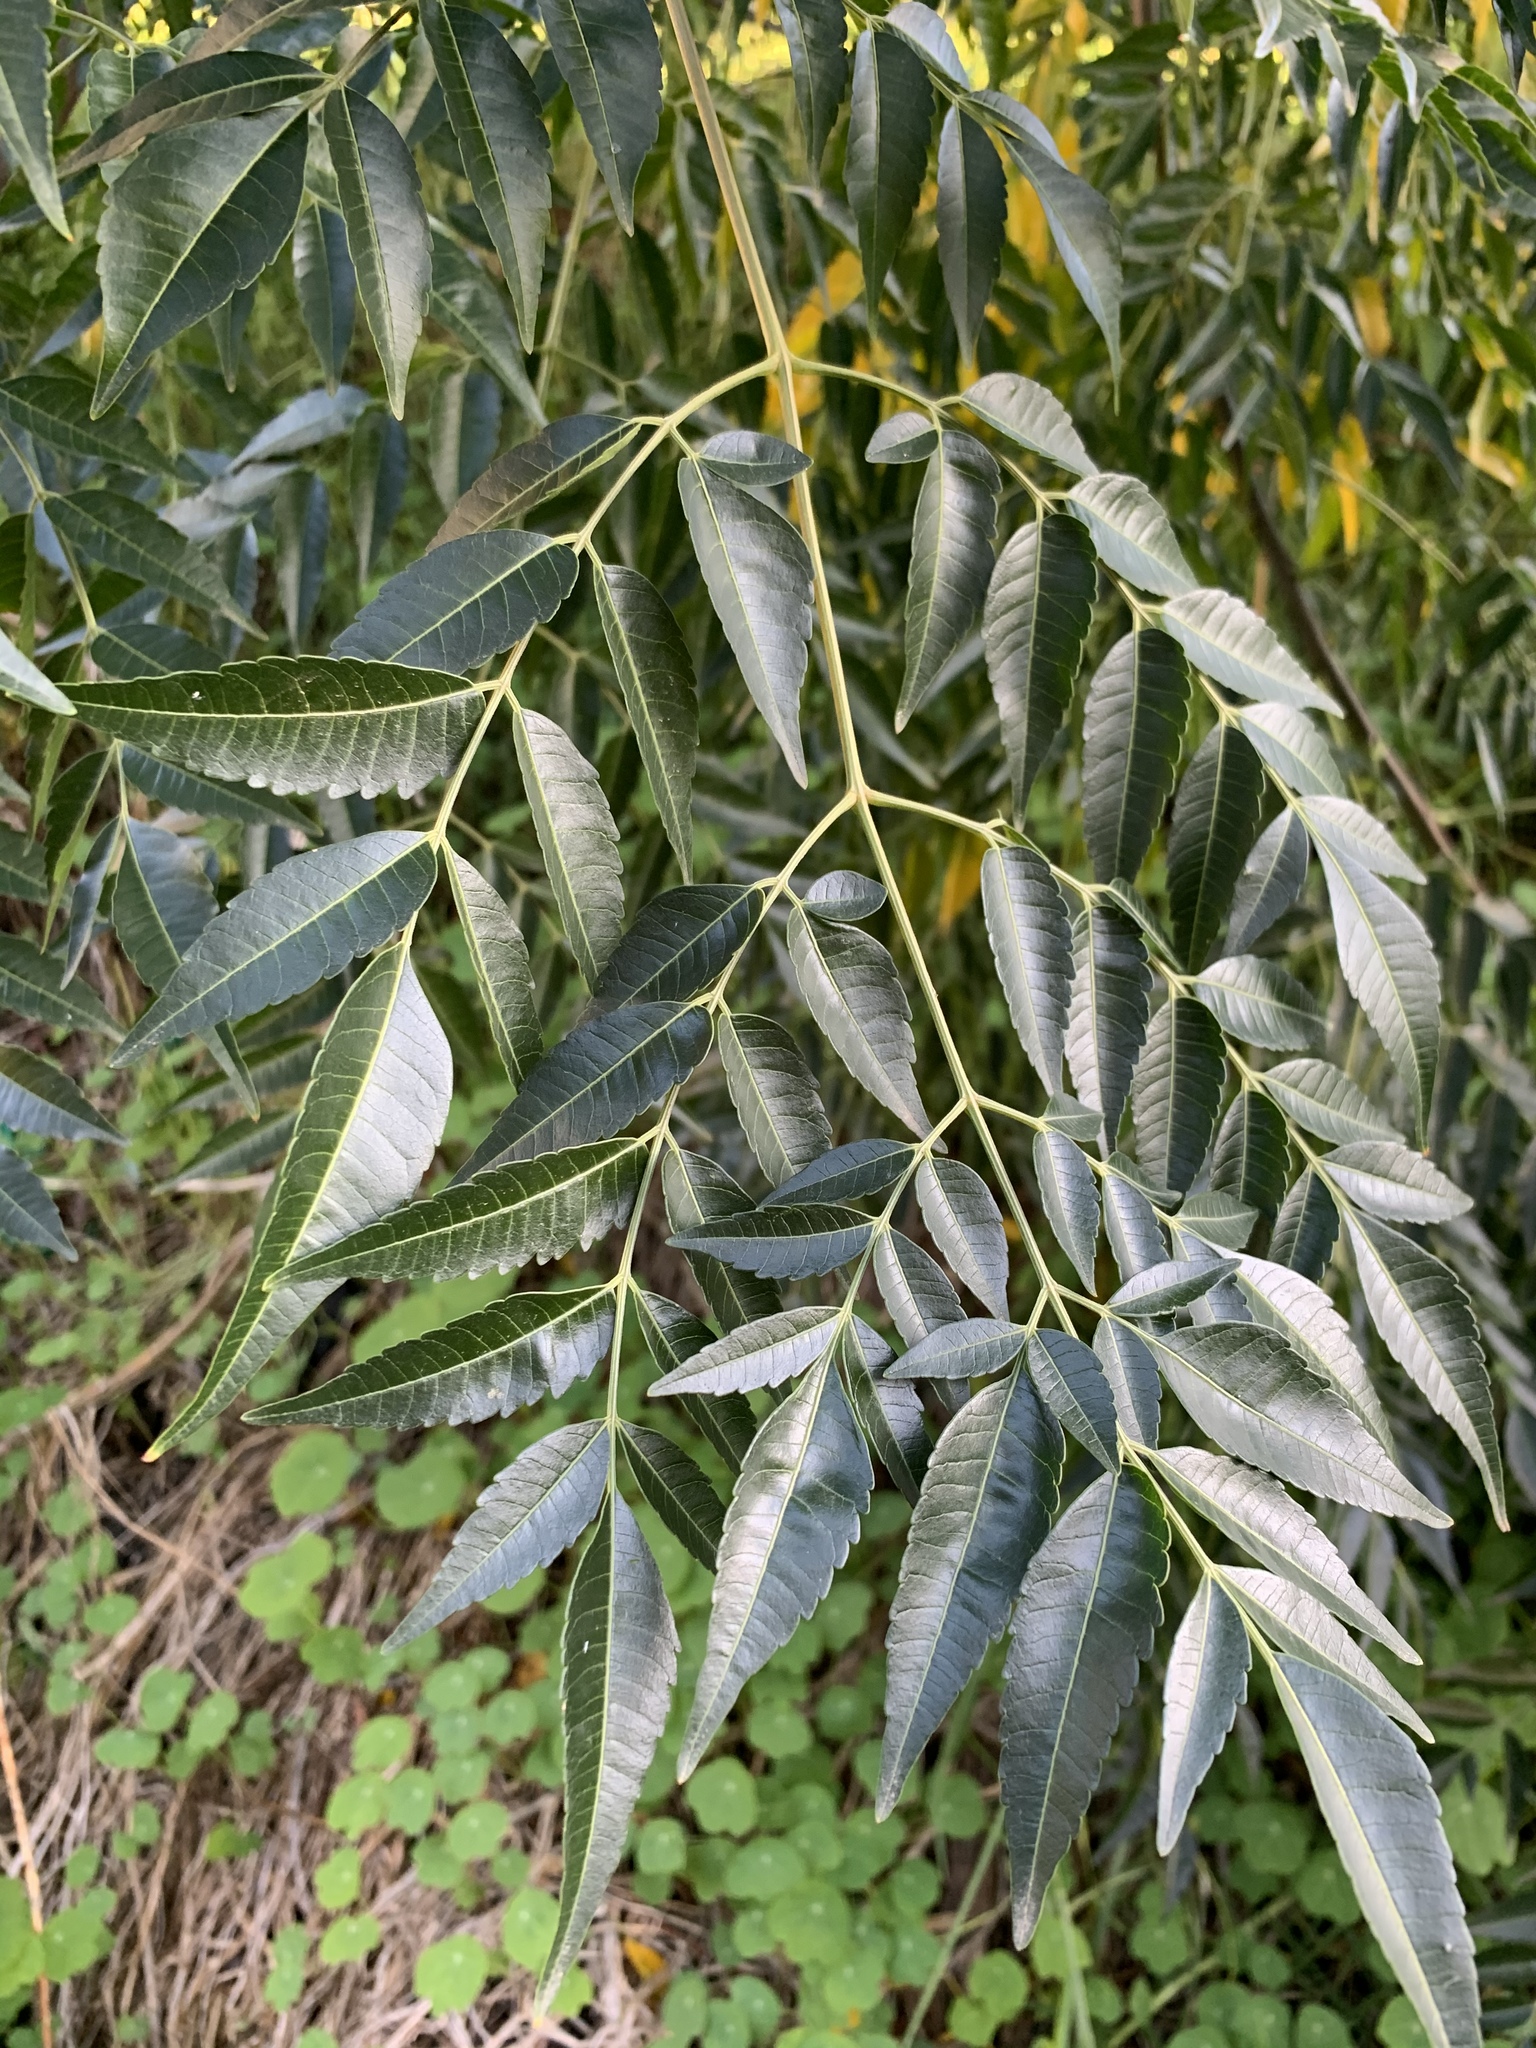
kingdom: Plantae
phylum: Tracheophyta
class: Magnoliopsida
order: Sapindales
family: Meliaceae
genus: Melia
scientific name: Melia azedarach
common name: Chinaberrytree
